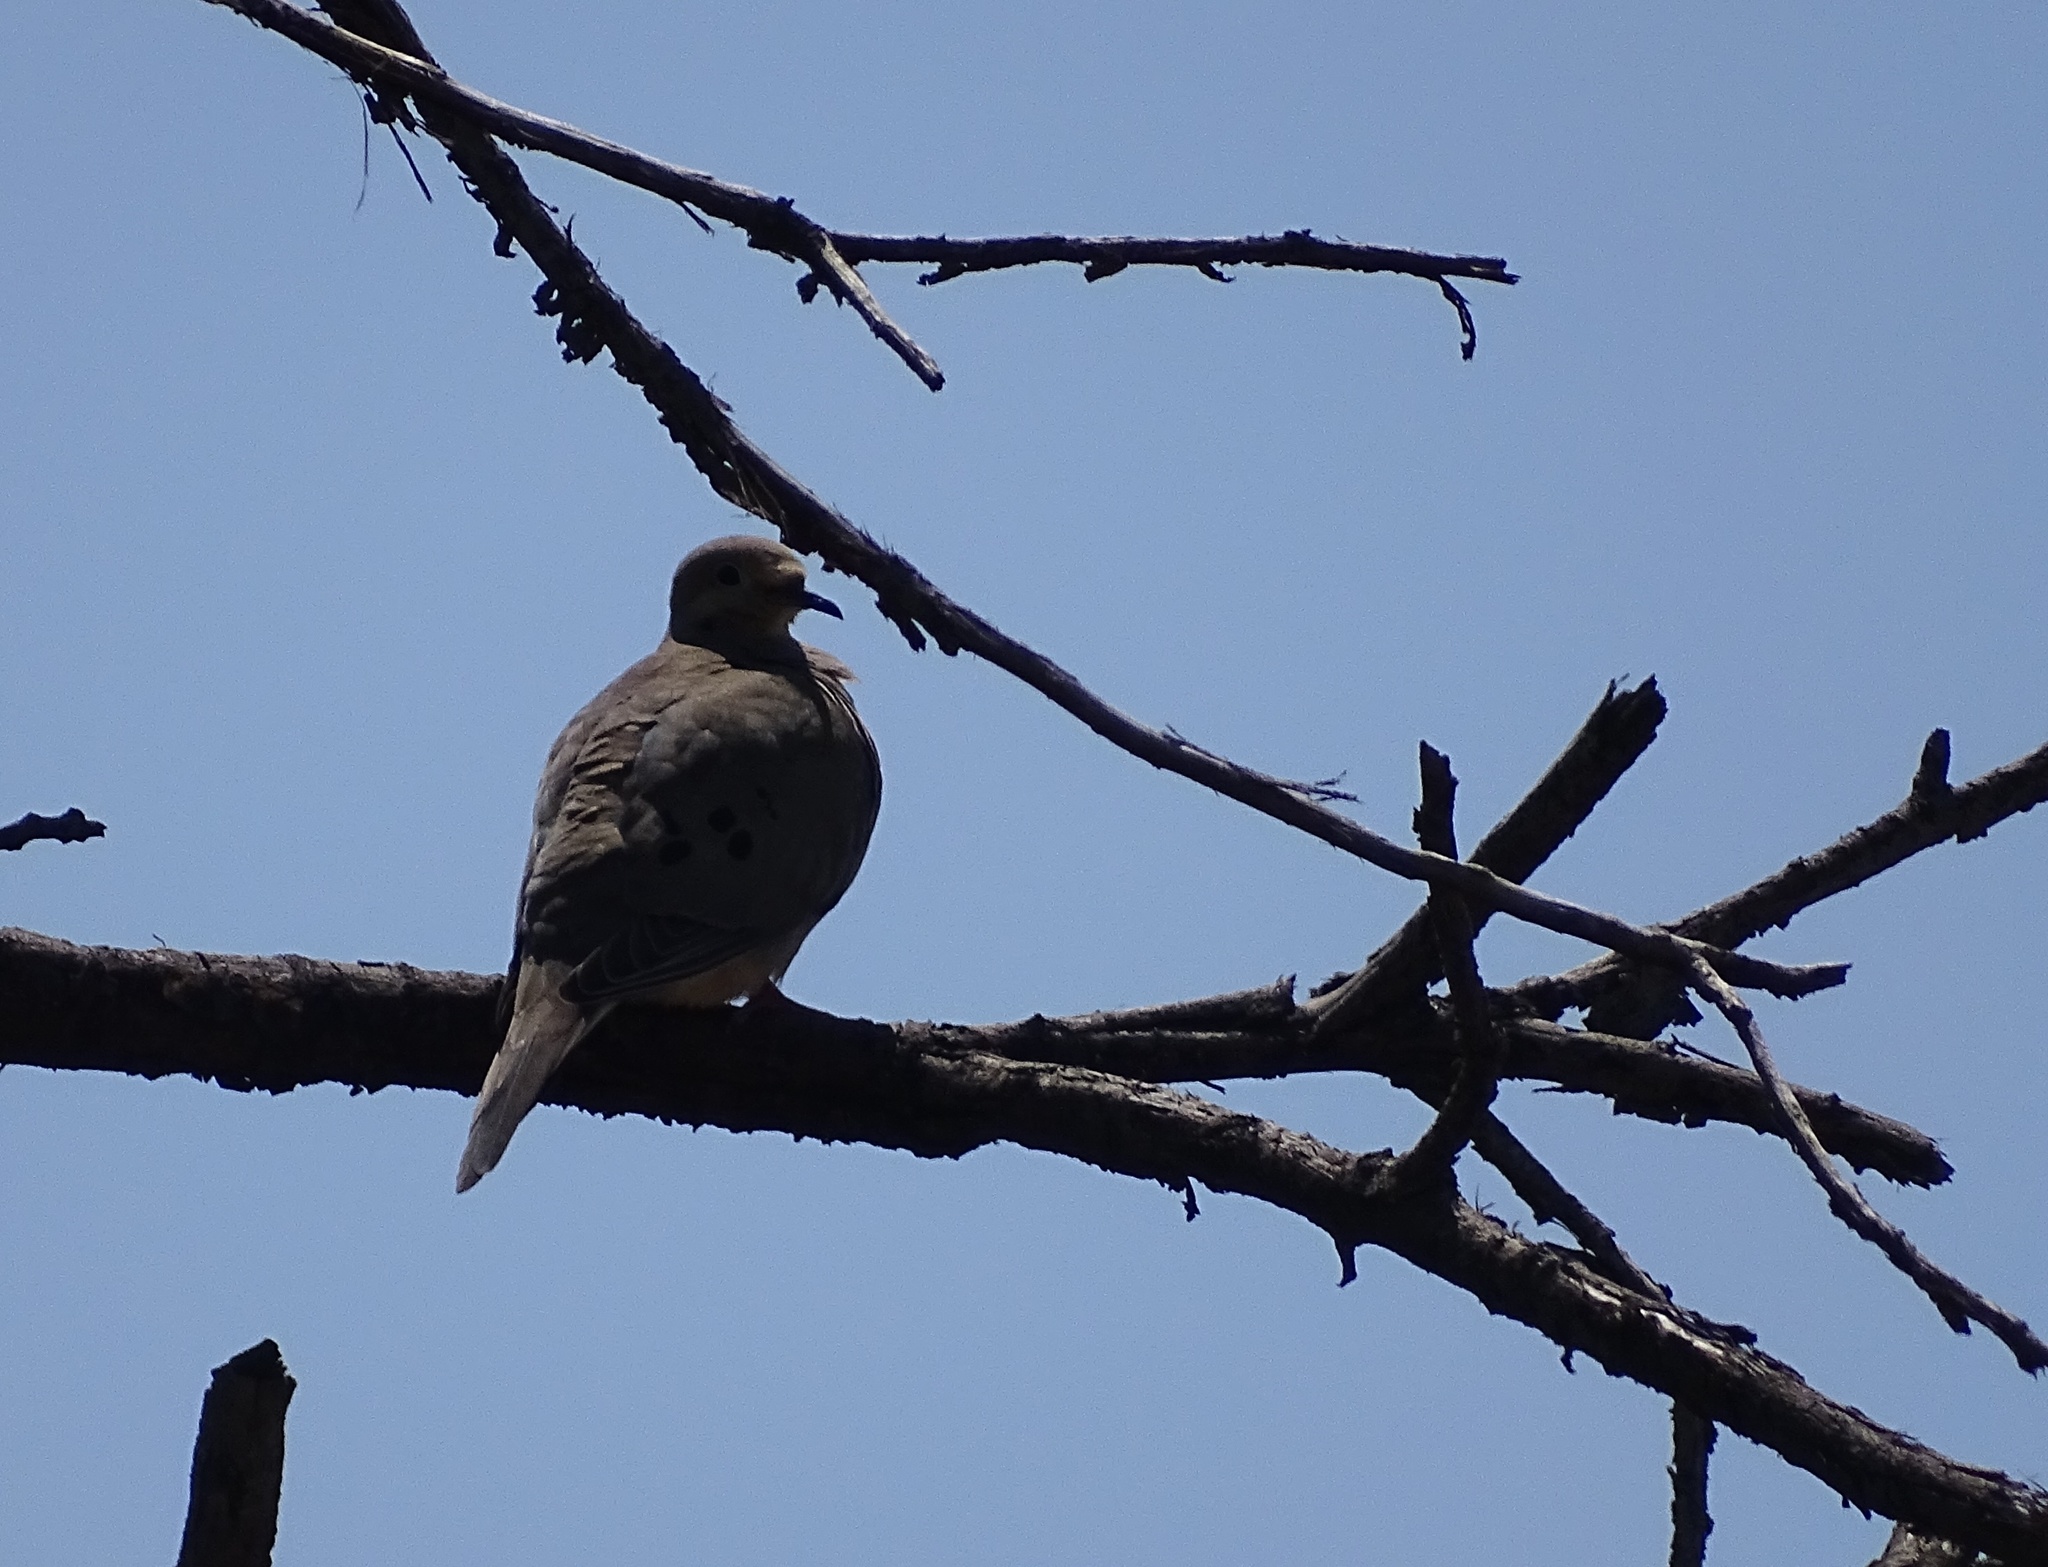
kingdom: Animalia
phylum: Chordata
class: Aves
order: Columbiformes
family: Columbidae
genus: Zenaida
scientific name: Zenaida macroura
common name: Mourning dove
